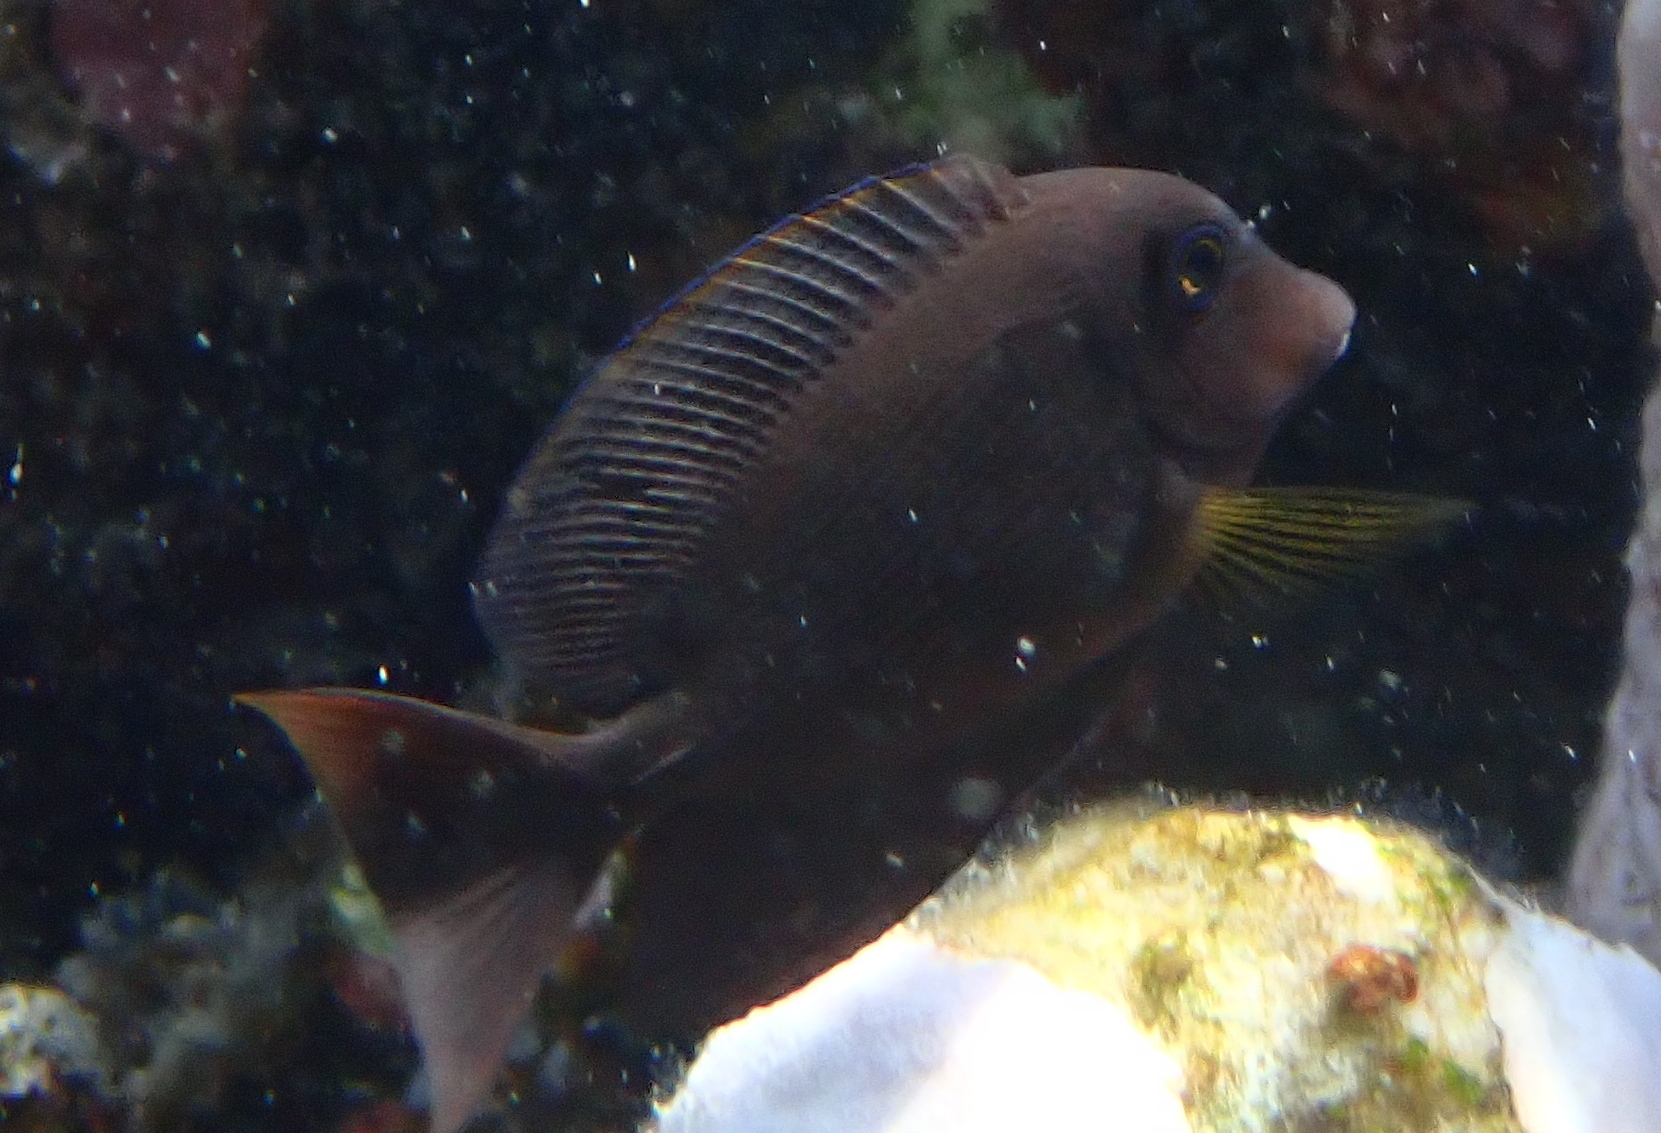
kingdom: Animalia
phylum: Chordata
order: Perciformes
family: Acanthuridae
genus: Ctenochaetus
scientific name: Ctenochaetus striatus
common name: Bristle-toothed surgeonfish
